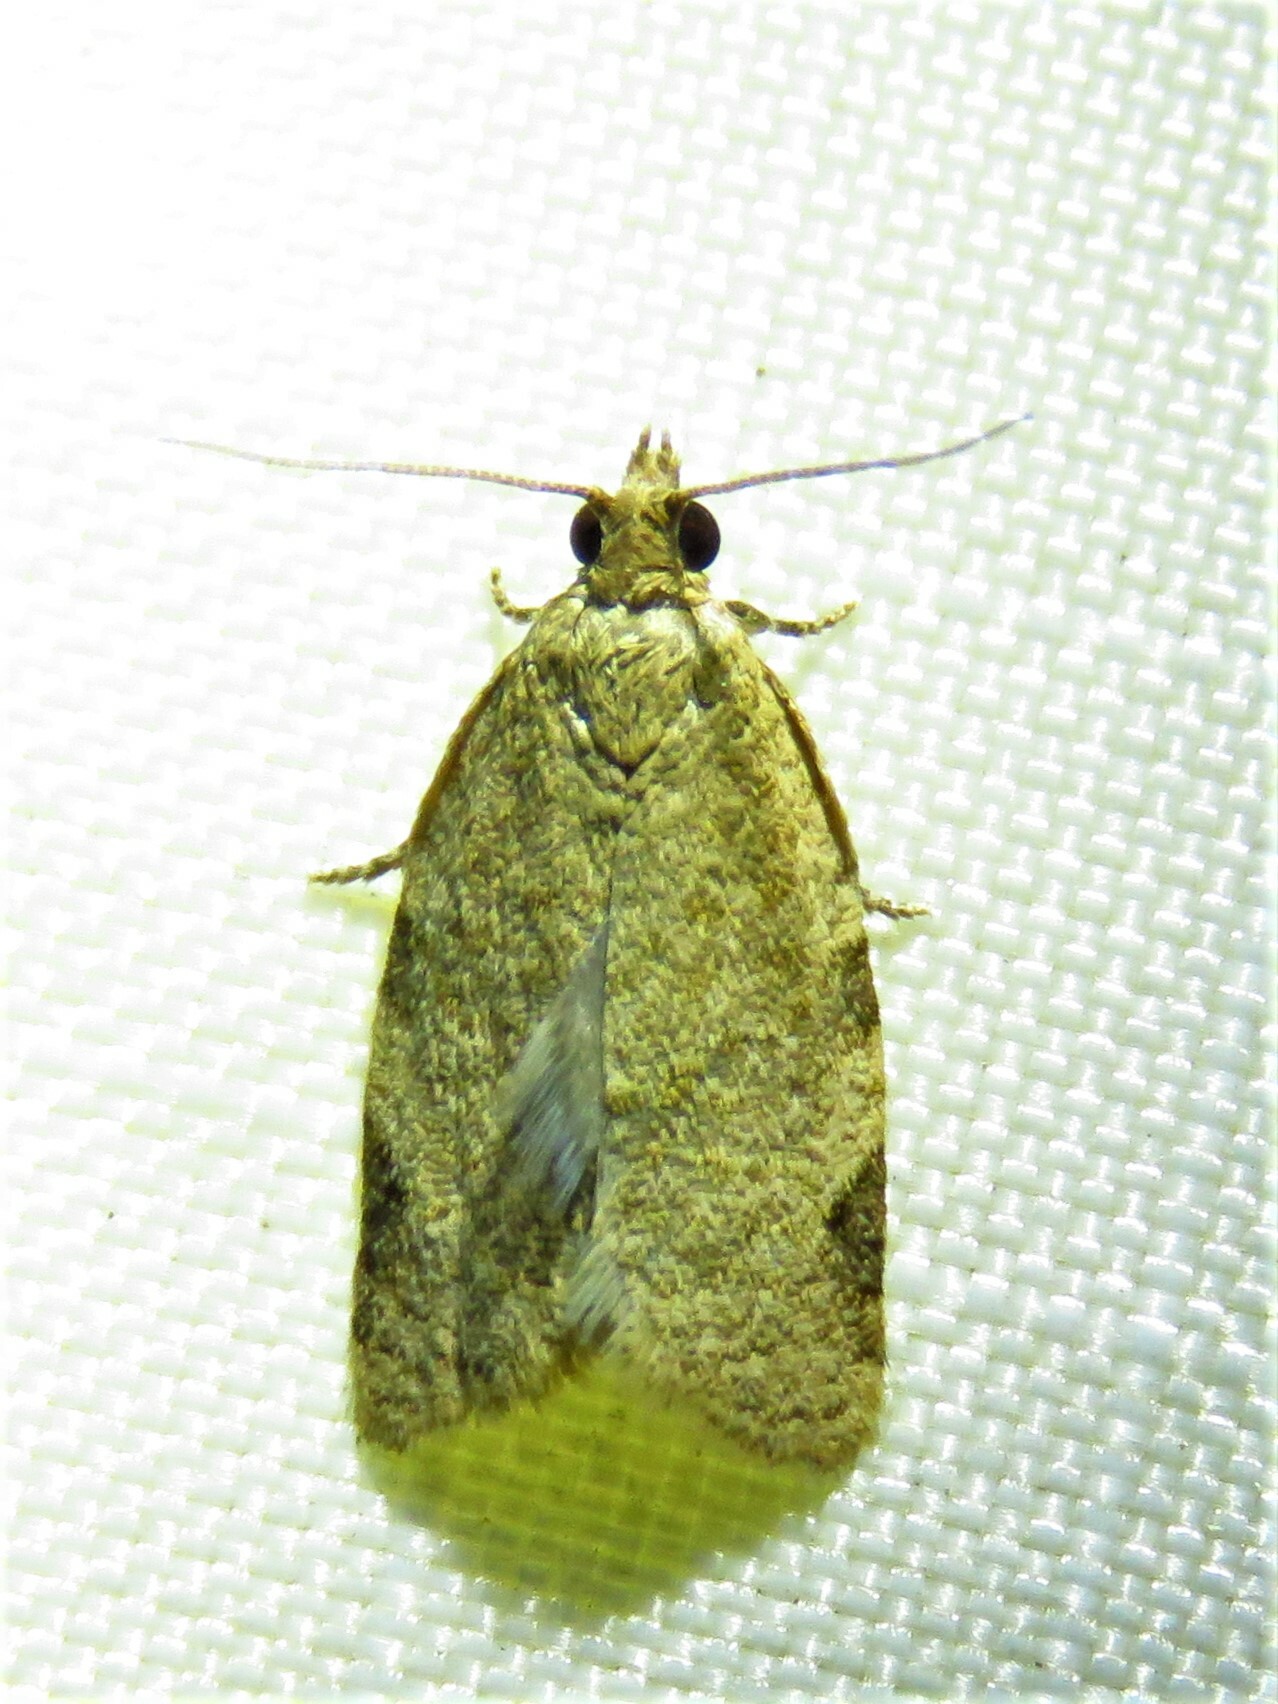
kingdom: Animalia
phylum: Arthropoda
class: Insecta
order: Lepidoptera
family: Tortricidae
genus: Clepsis
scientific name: Clepsis virescana
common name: Greenish apple moth
